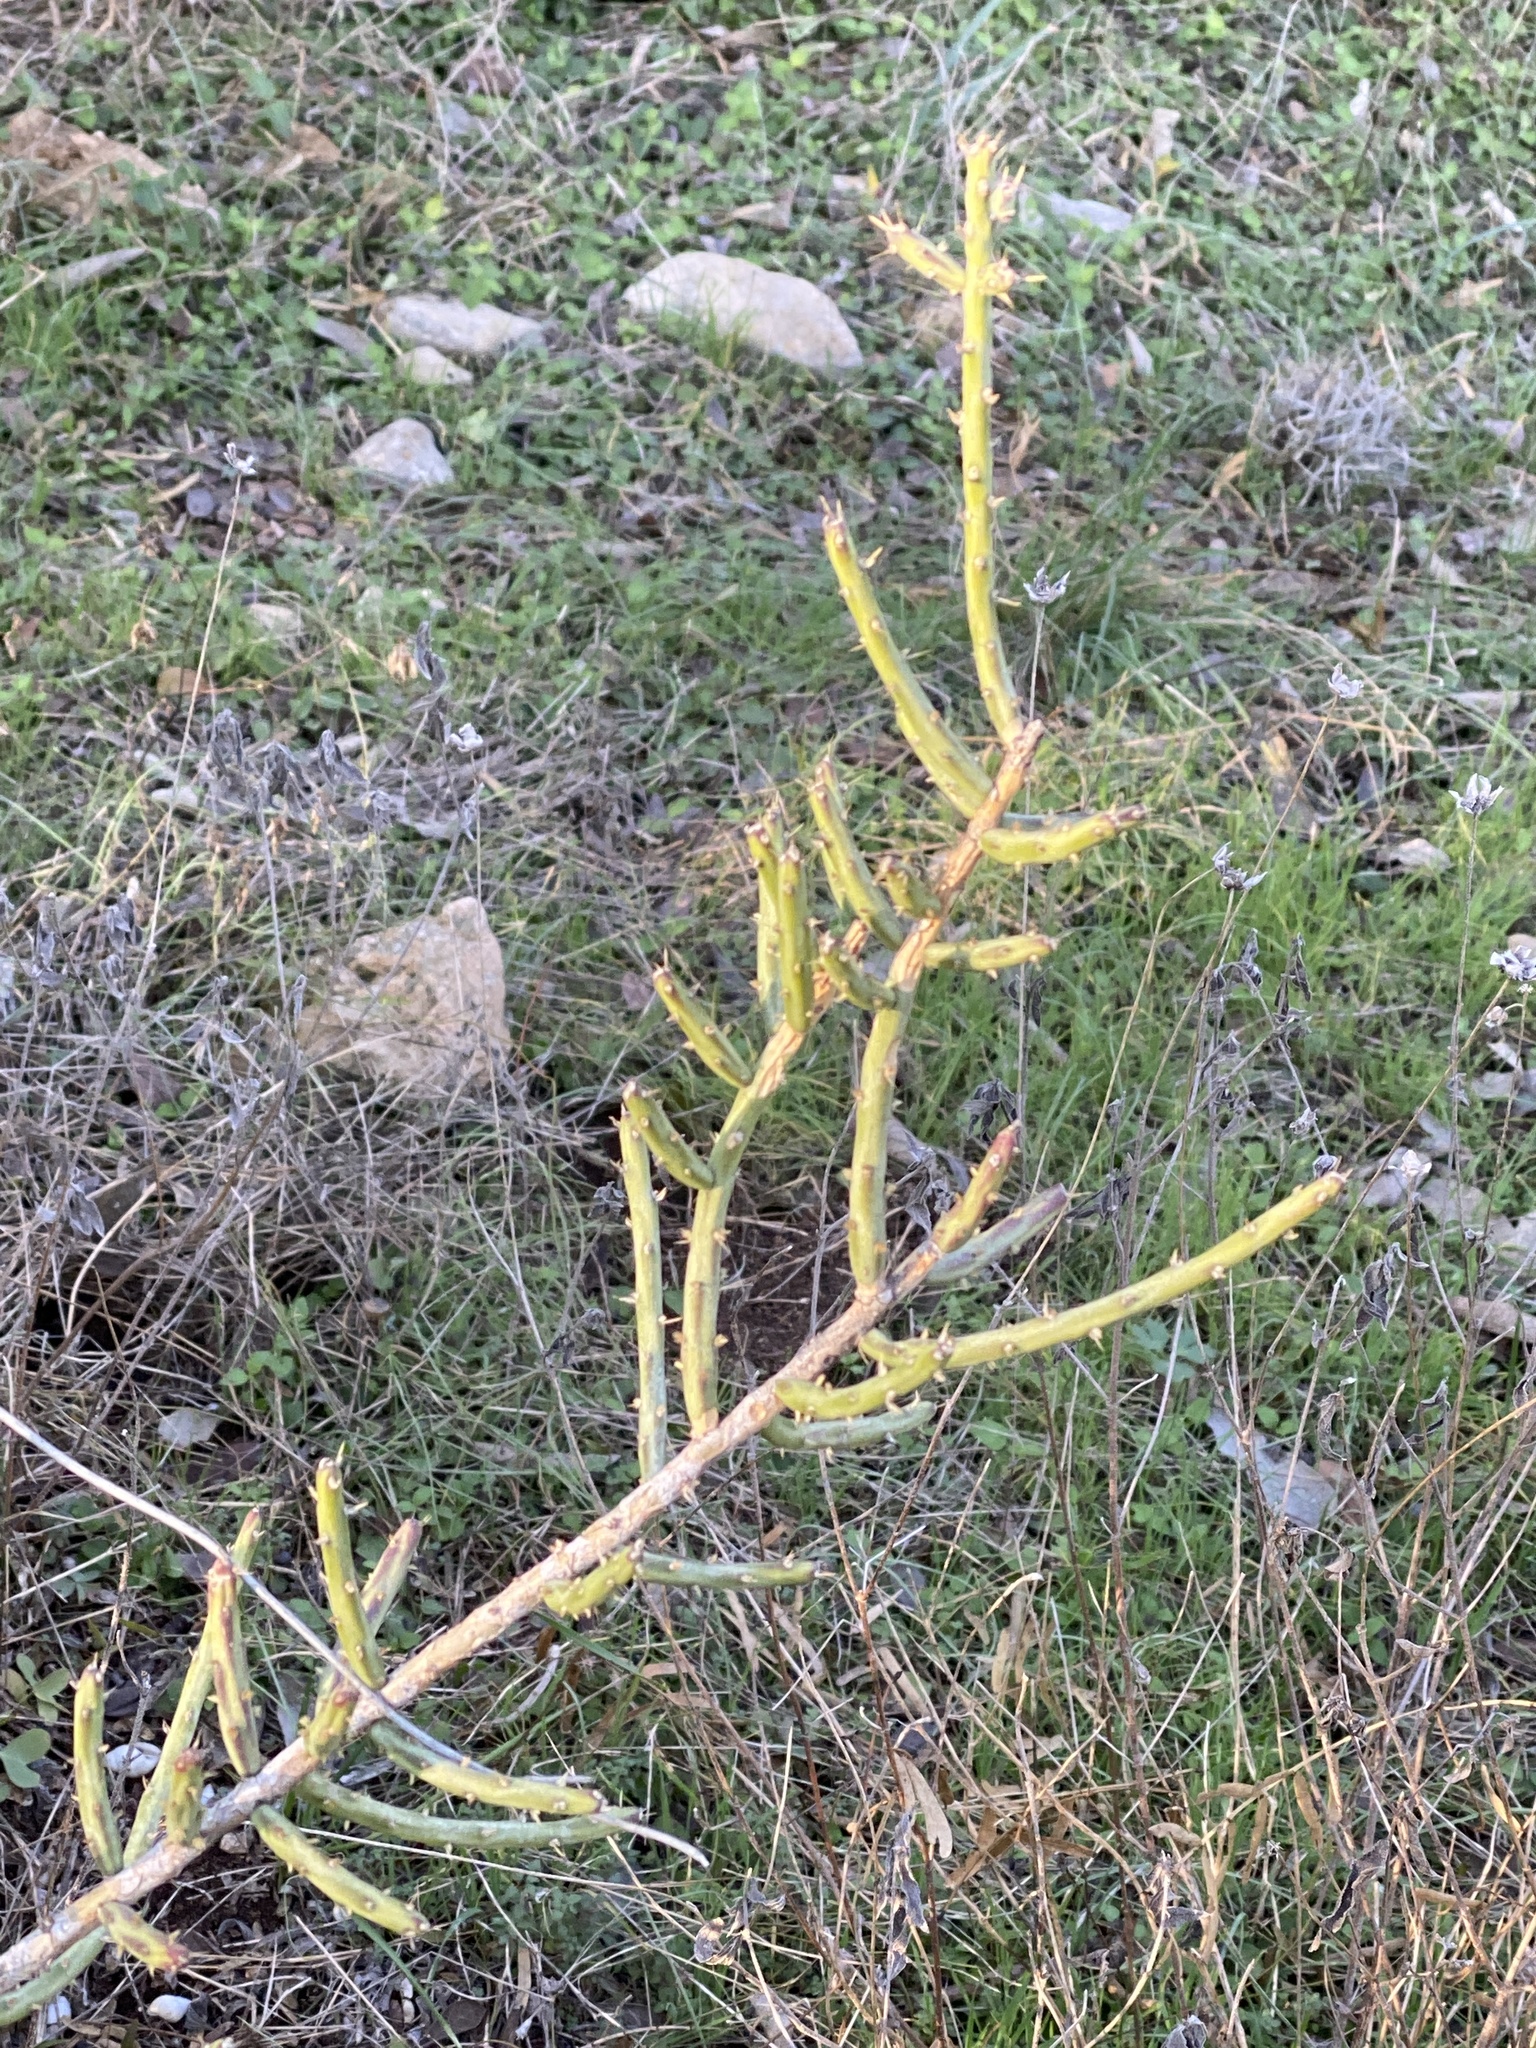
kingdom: Plantae
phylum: Tracheophyta
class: Magnoliopsida
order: Caryophyllales
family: Cactaceae
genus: Cylindropuntia
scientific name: Cylindropuntia leptocaulis
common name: Christmas cactus
